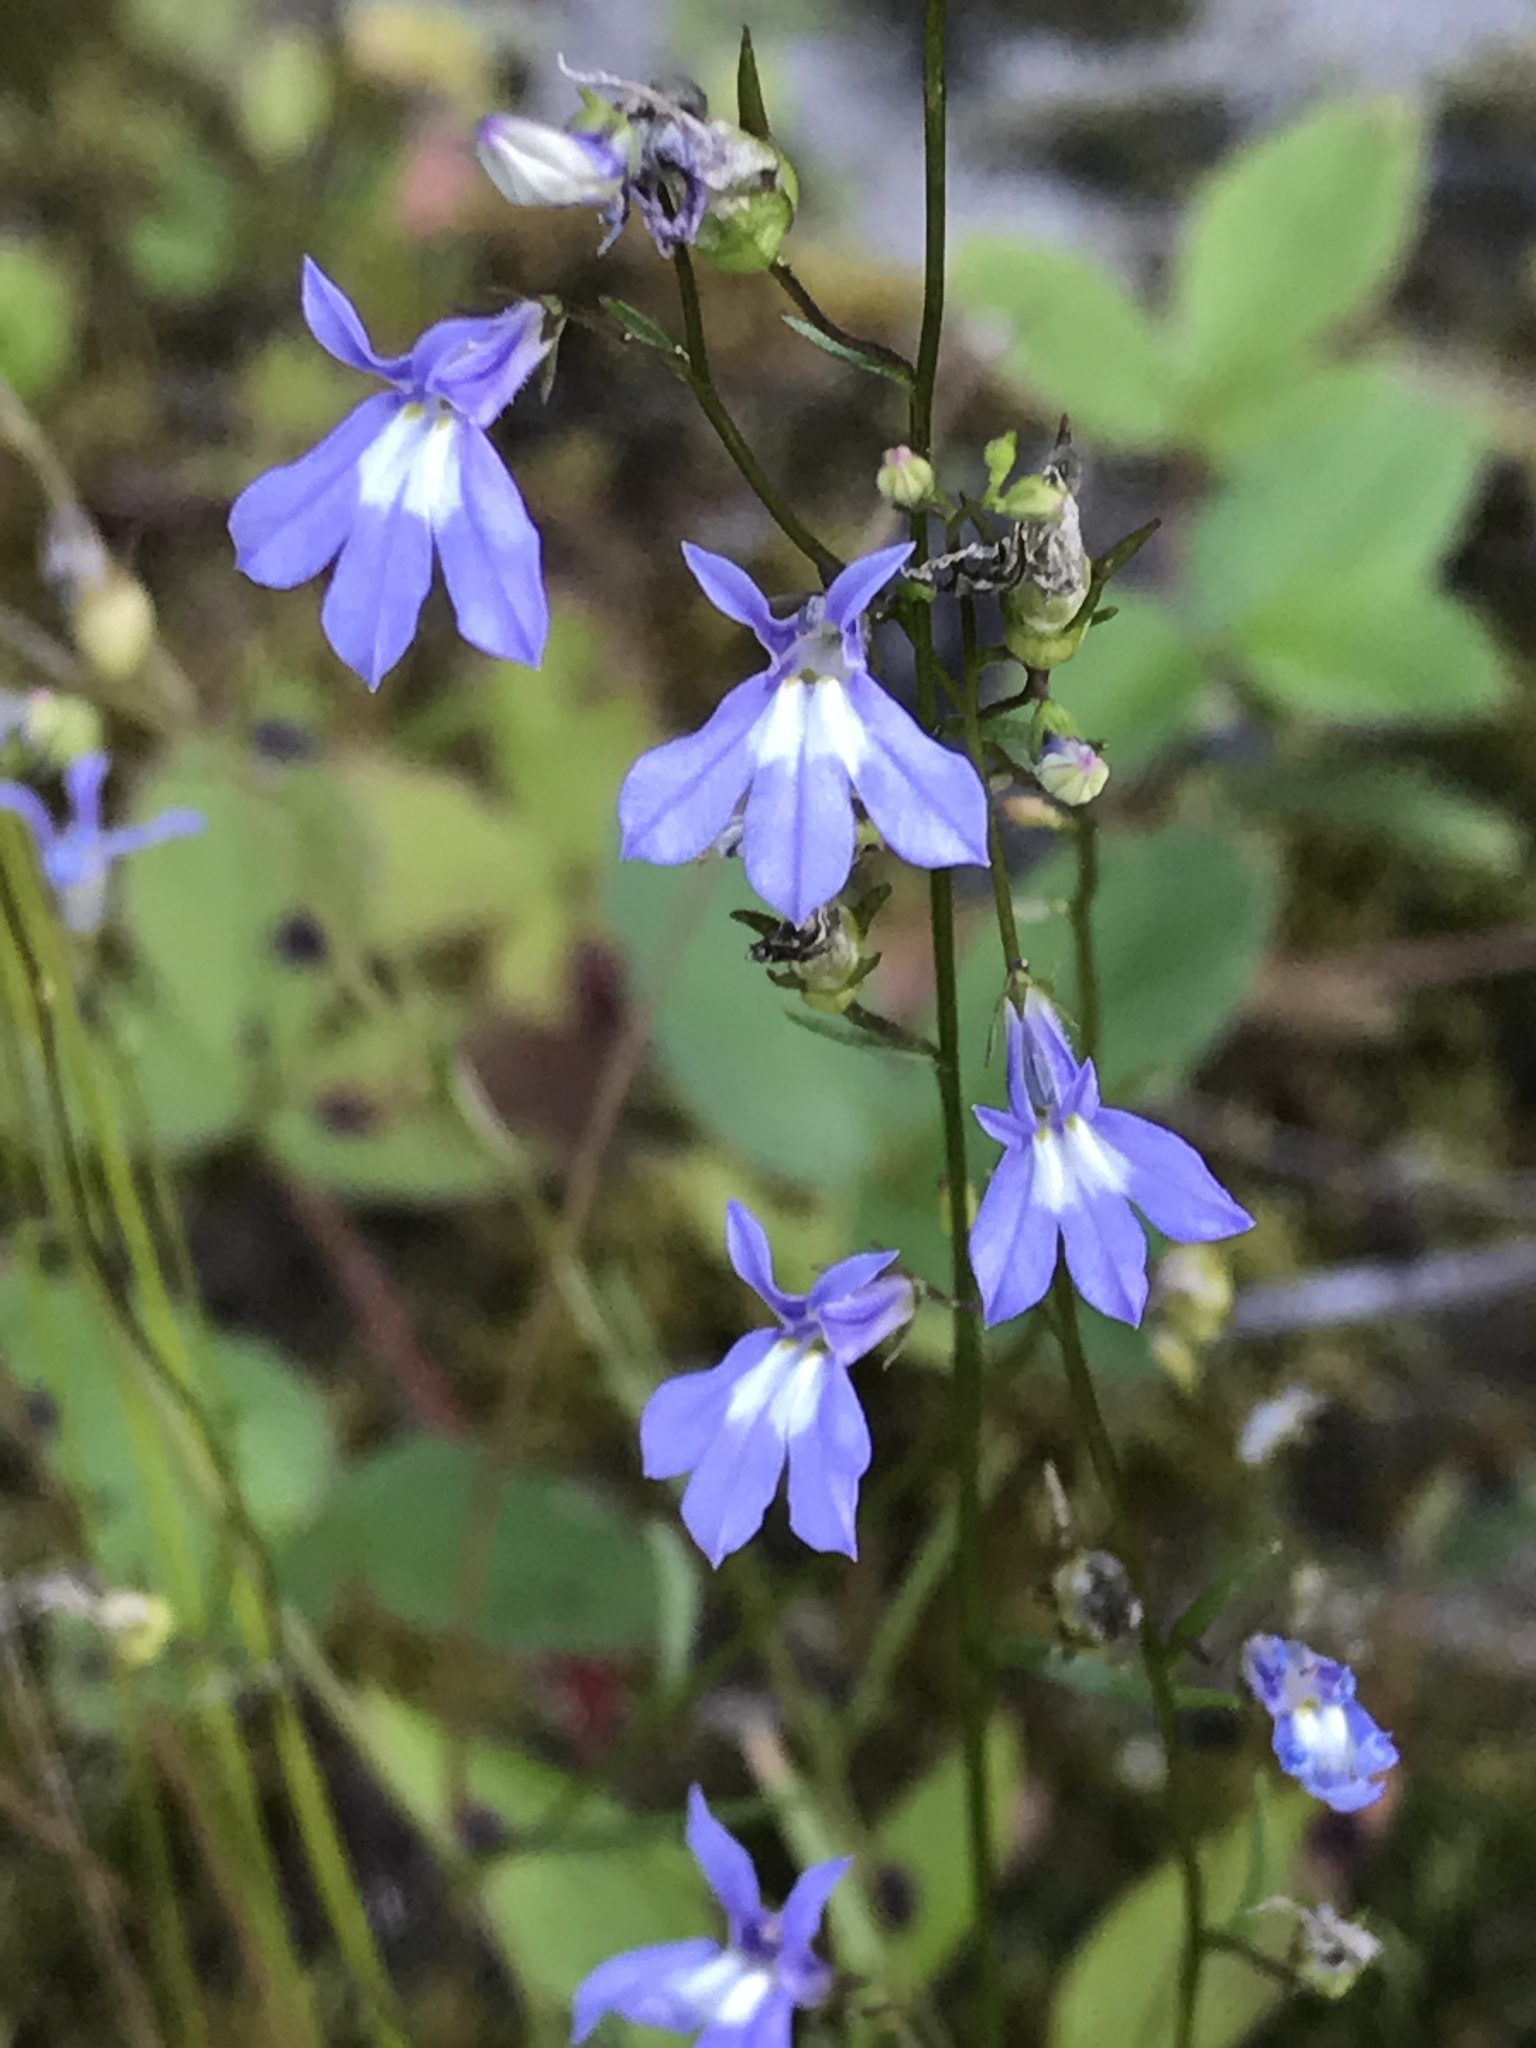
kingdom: Plantae
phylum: Tracheophyta
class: Magnoliopsida
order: Asterales
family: Campanulaceae
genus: Lobelia
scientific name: Lobelia kalmii
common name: Kalm's lobelia
